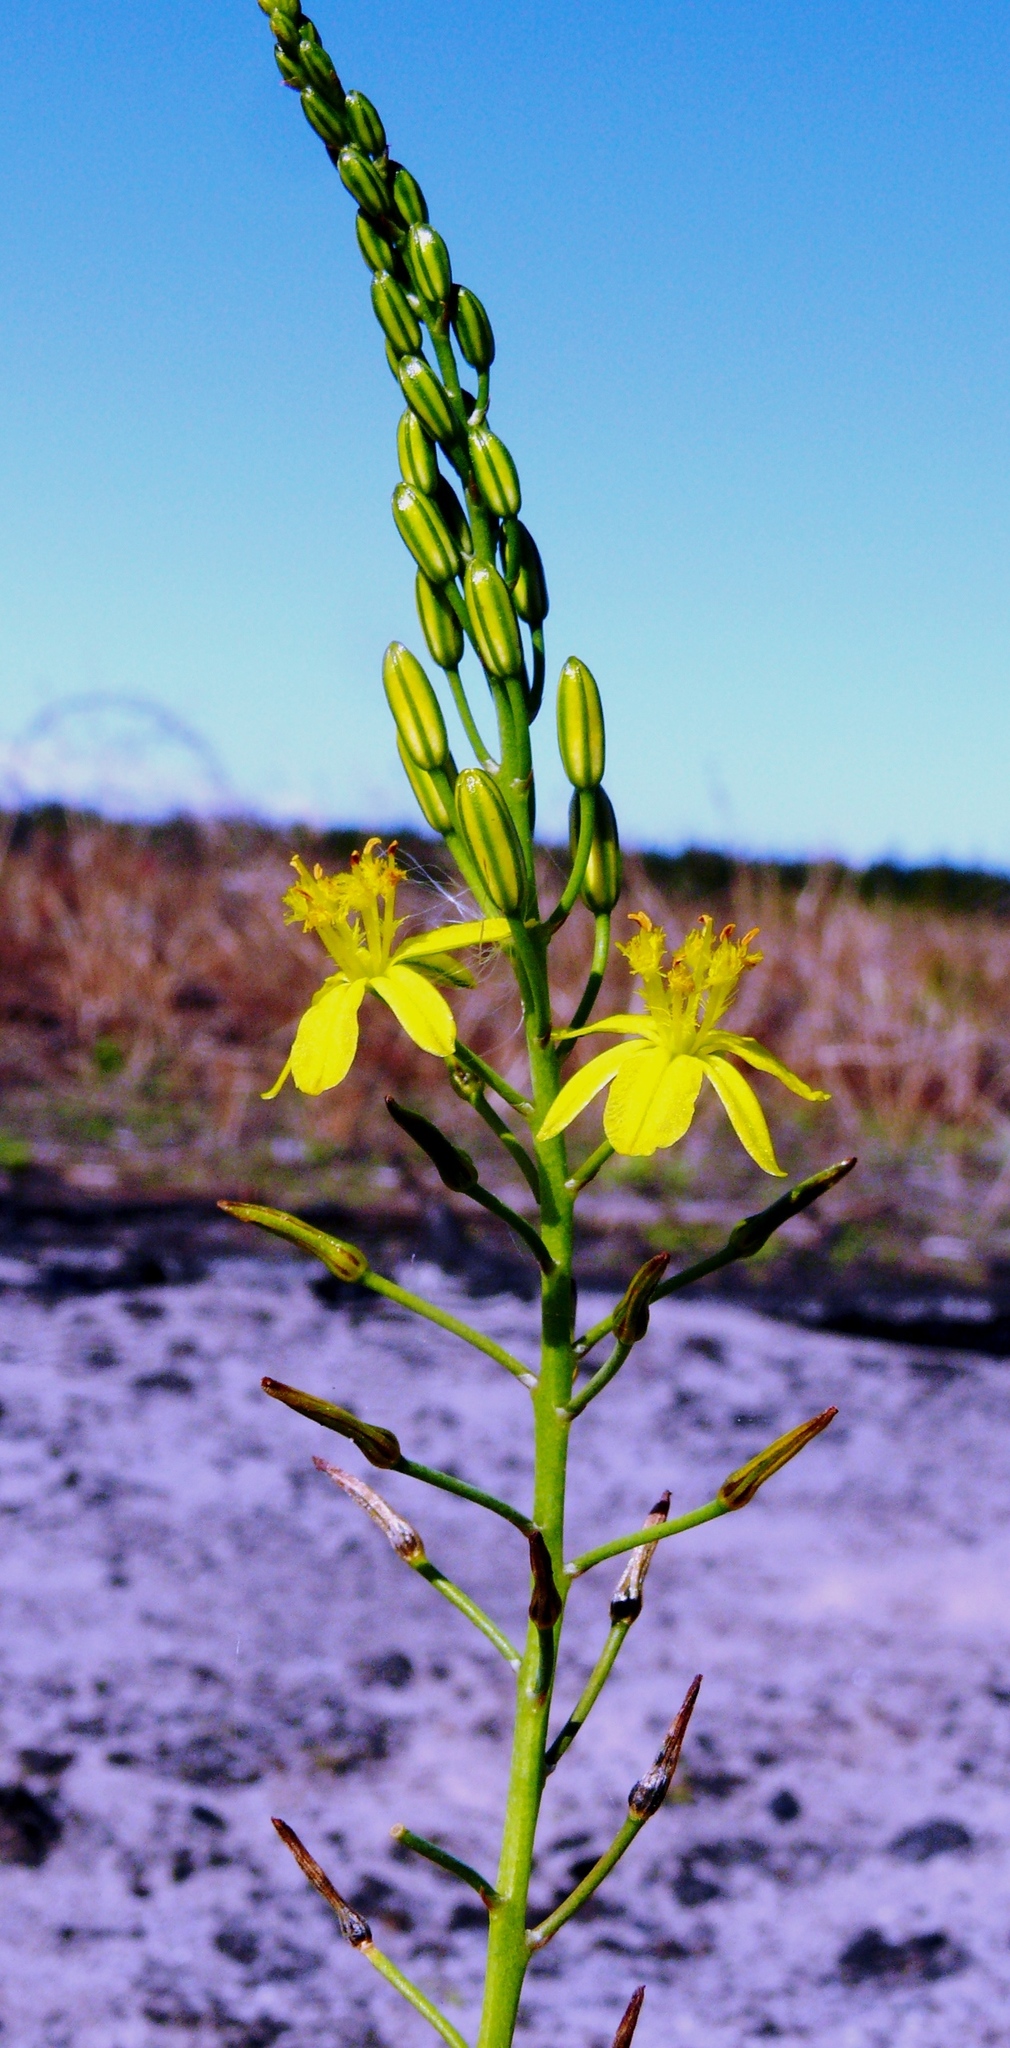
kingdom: Plantae
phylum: Tracheophyta
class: Liliopsida
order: Asparagales
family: Asphodelaceae
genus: Bulbine
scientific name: Bulbine favosa
